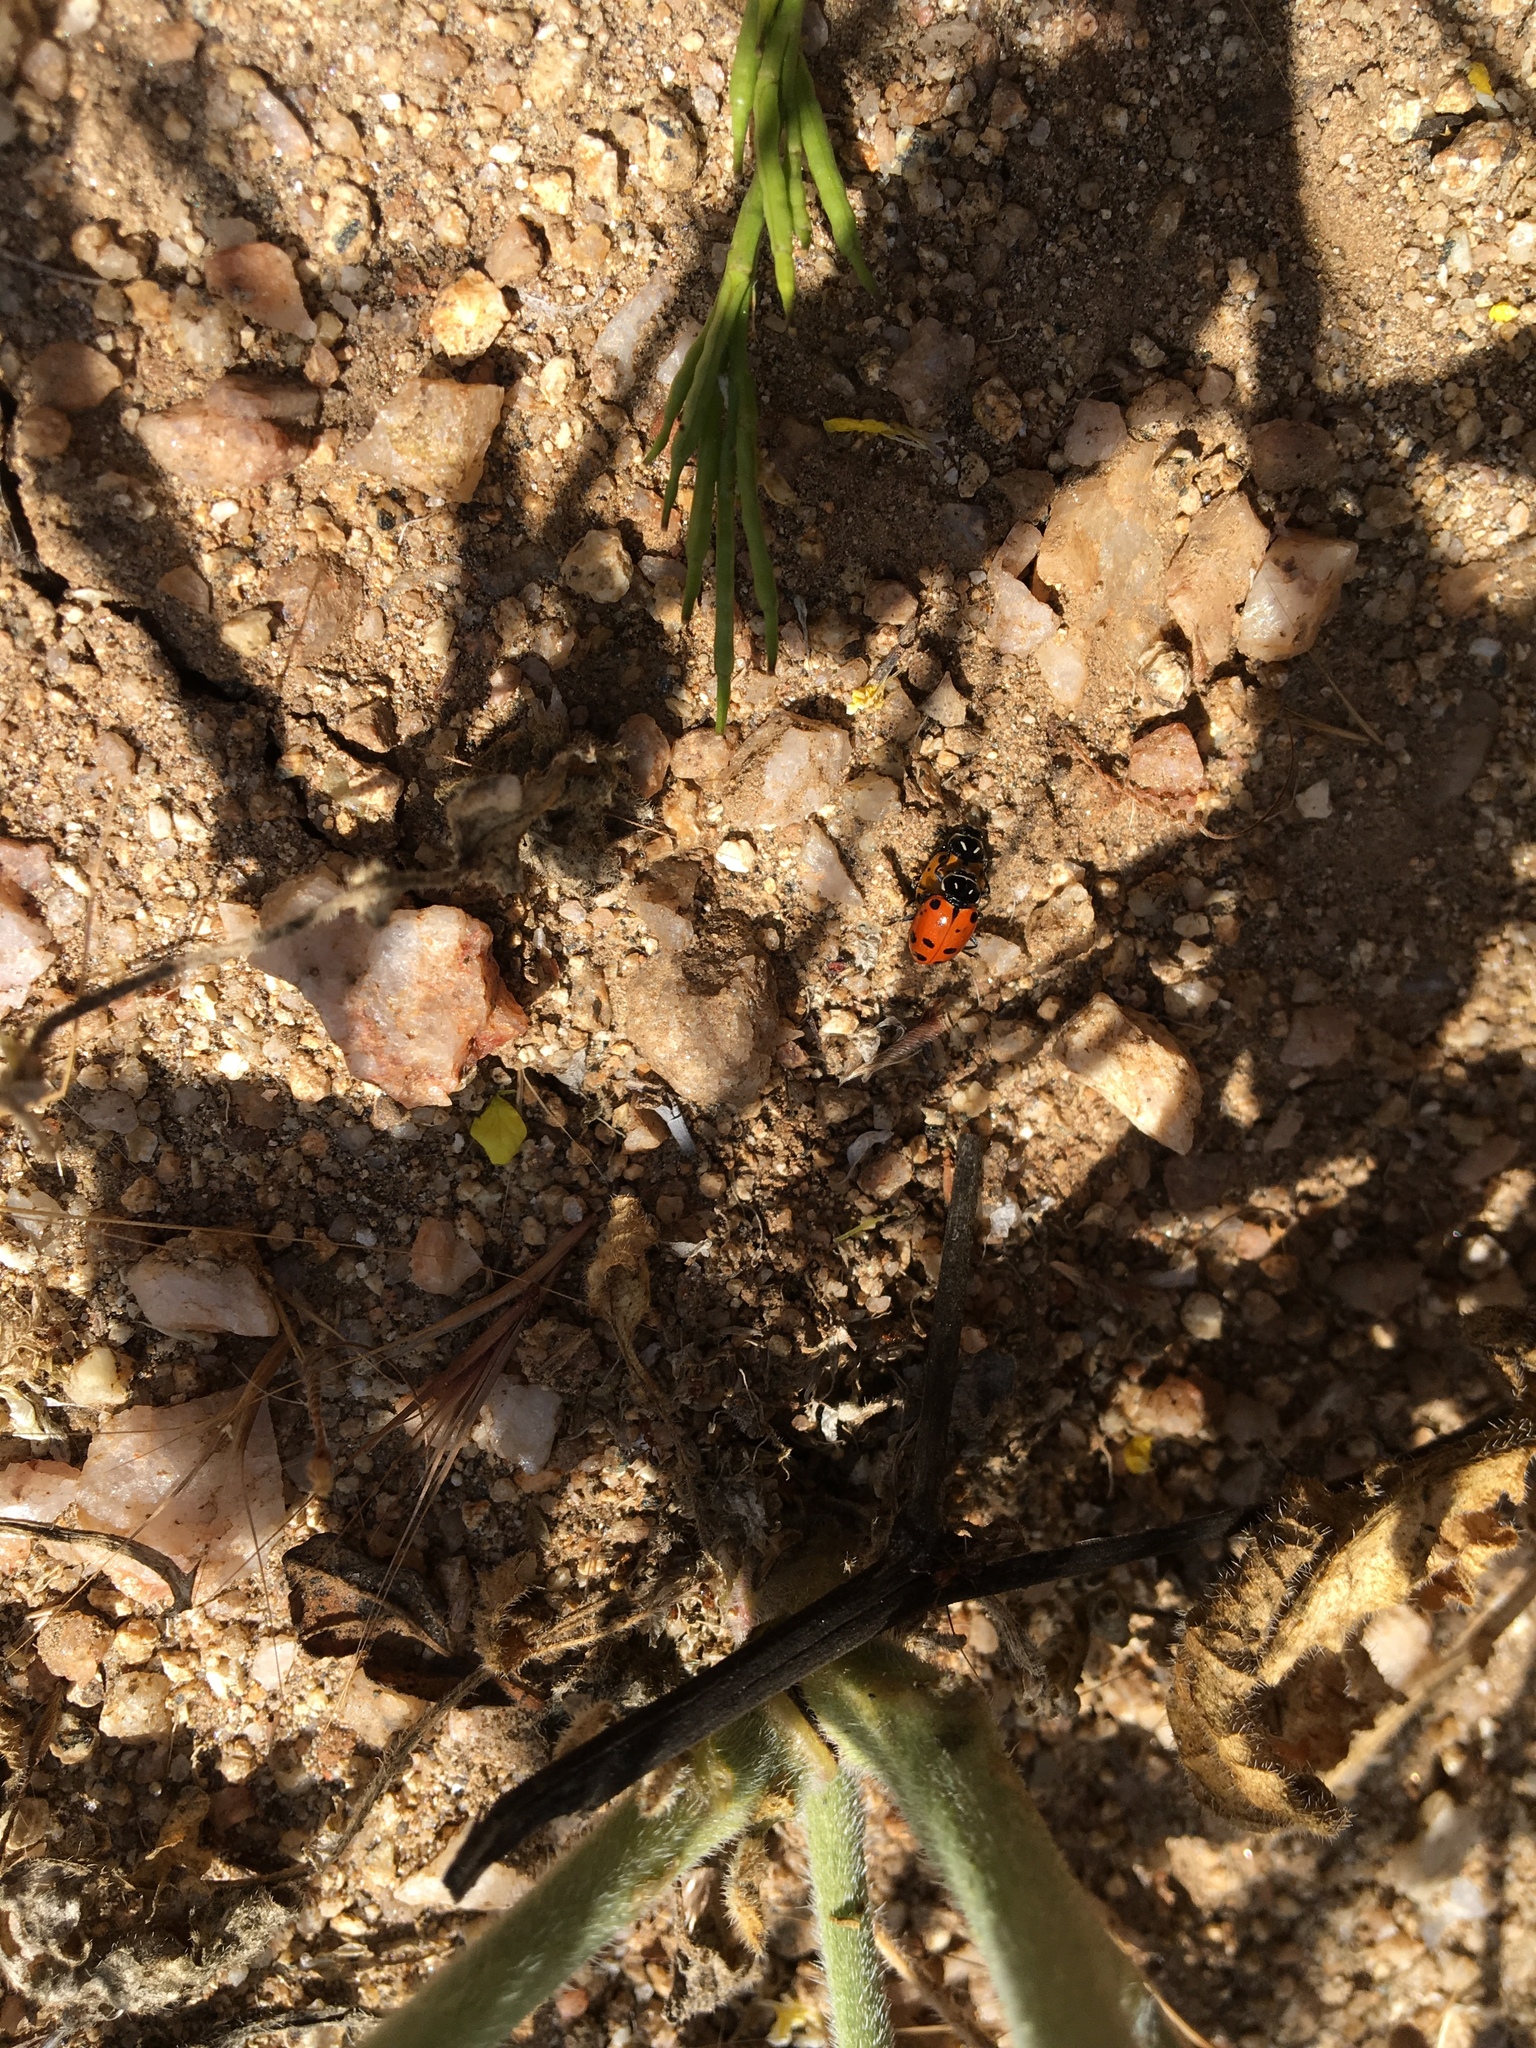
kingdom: Animalia
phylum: Arthropoda
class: Insecta
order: Coleoptera
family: Coccinellidae
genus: Hippodamia
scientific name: Hippodamia convergens
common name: Convergent lady beetle
